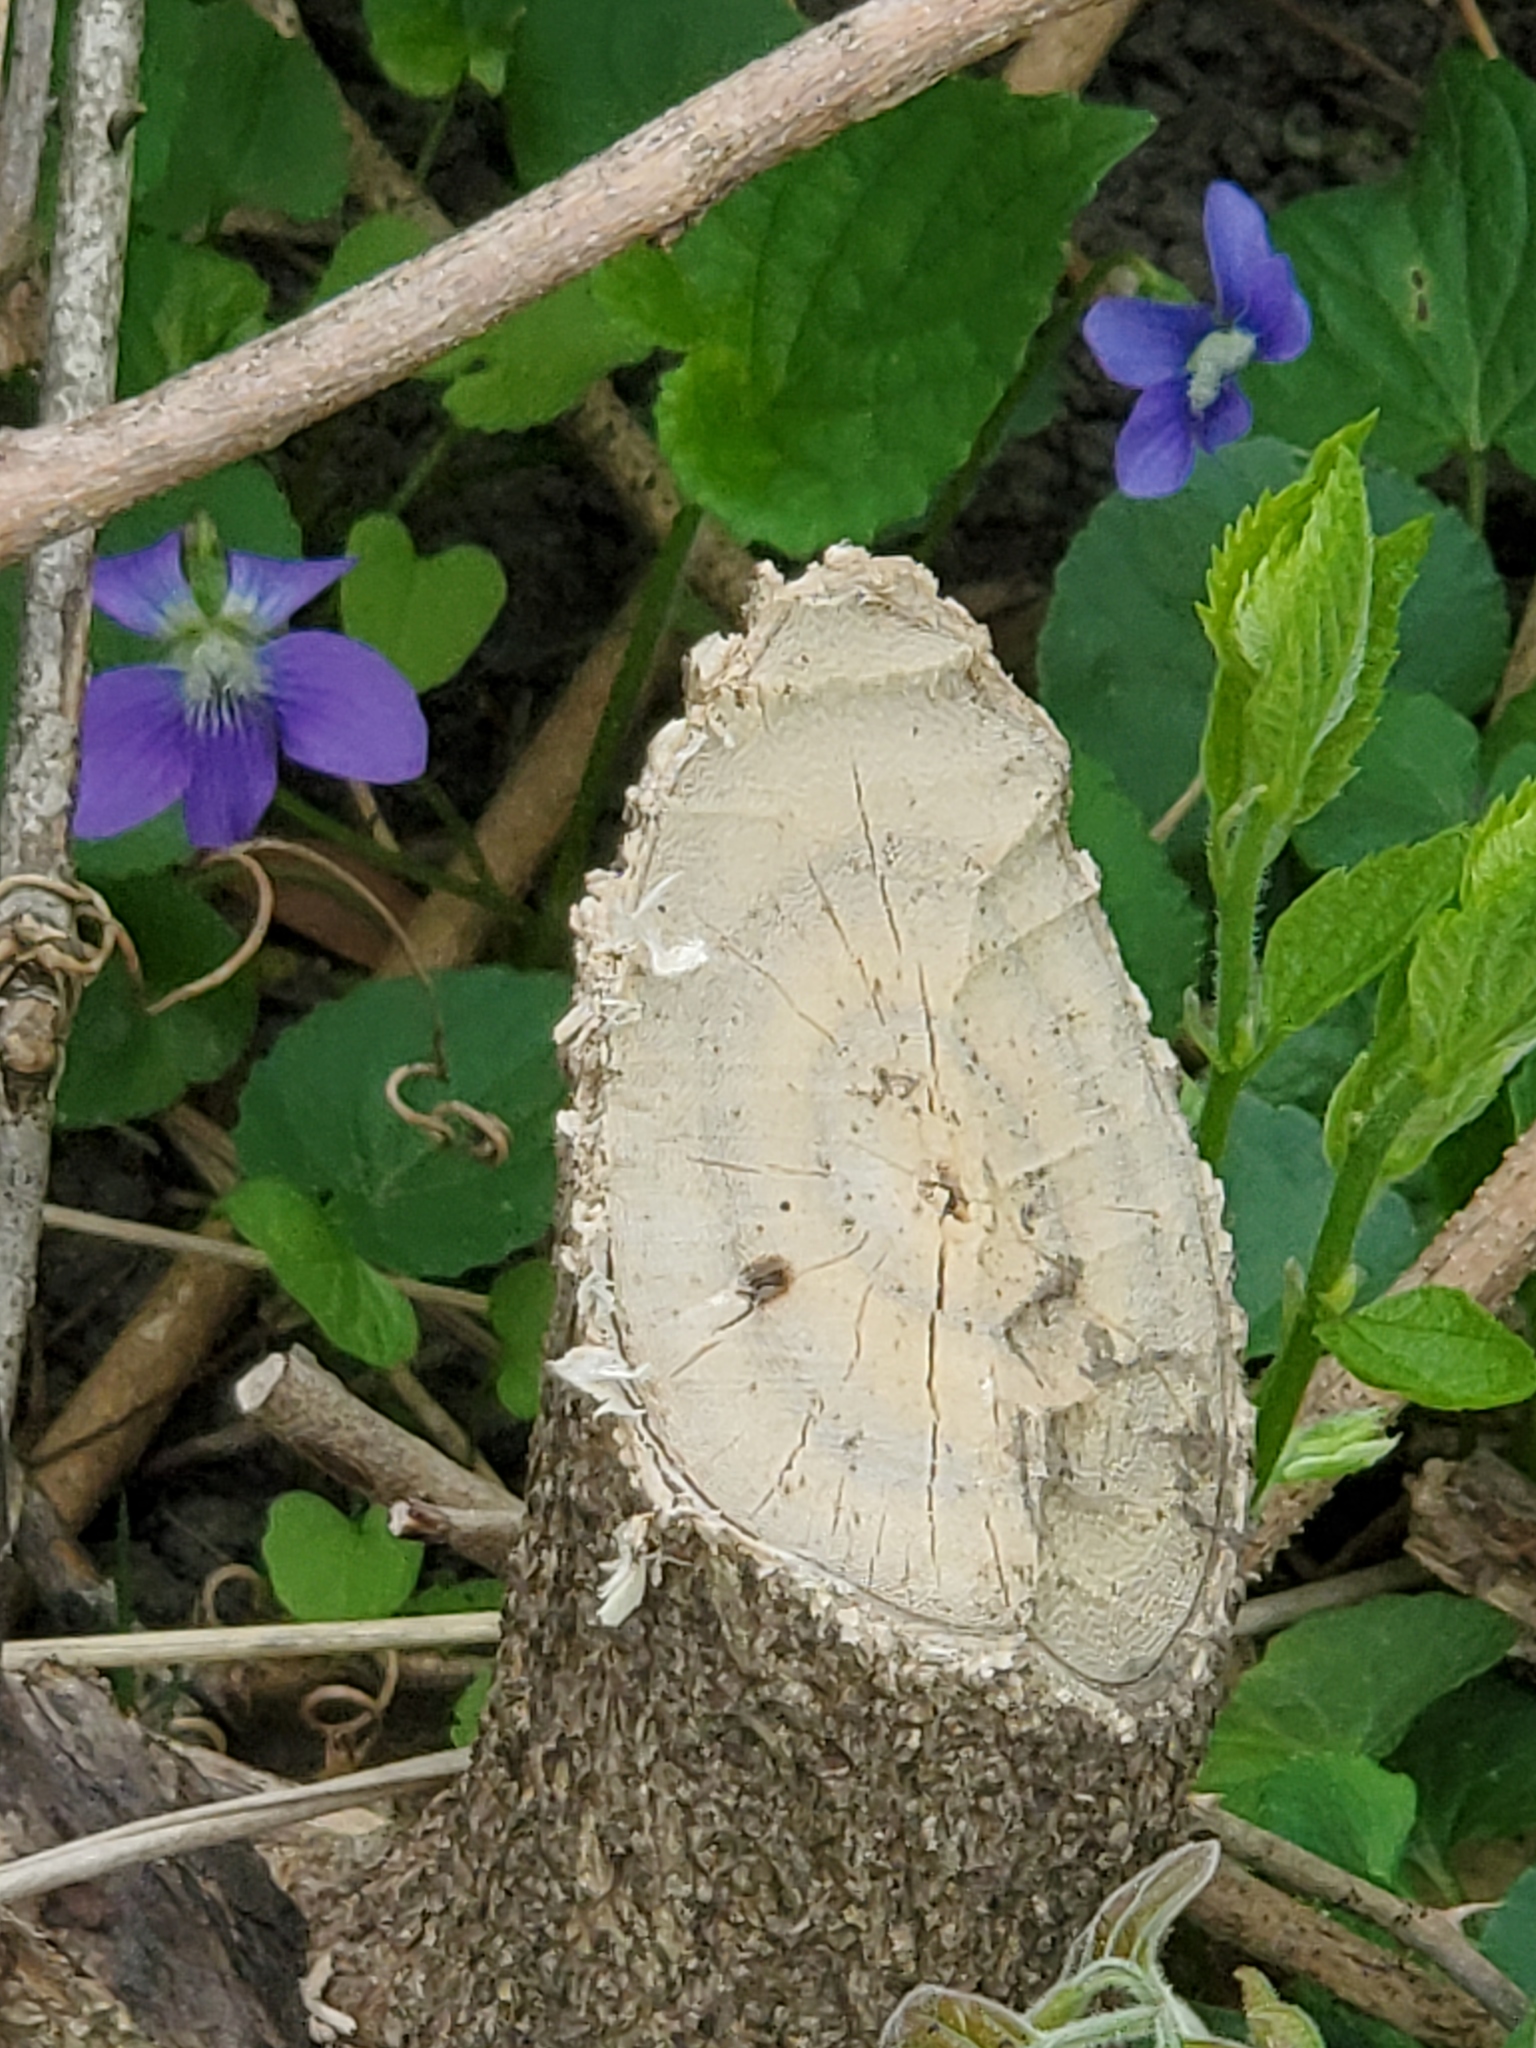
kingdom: Animalia
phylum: Chordata
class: Mammalia
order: Rodentia
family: Castoridae
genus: Castor
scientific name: Castor canadensis
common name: American beaver
